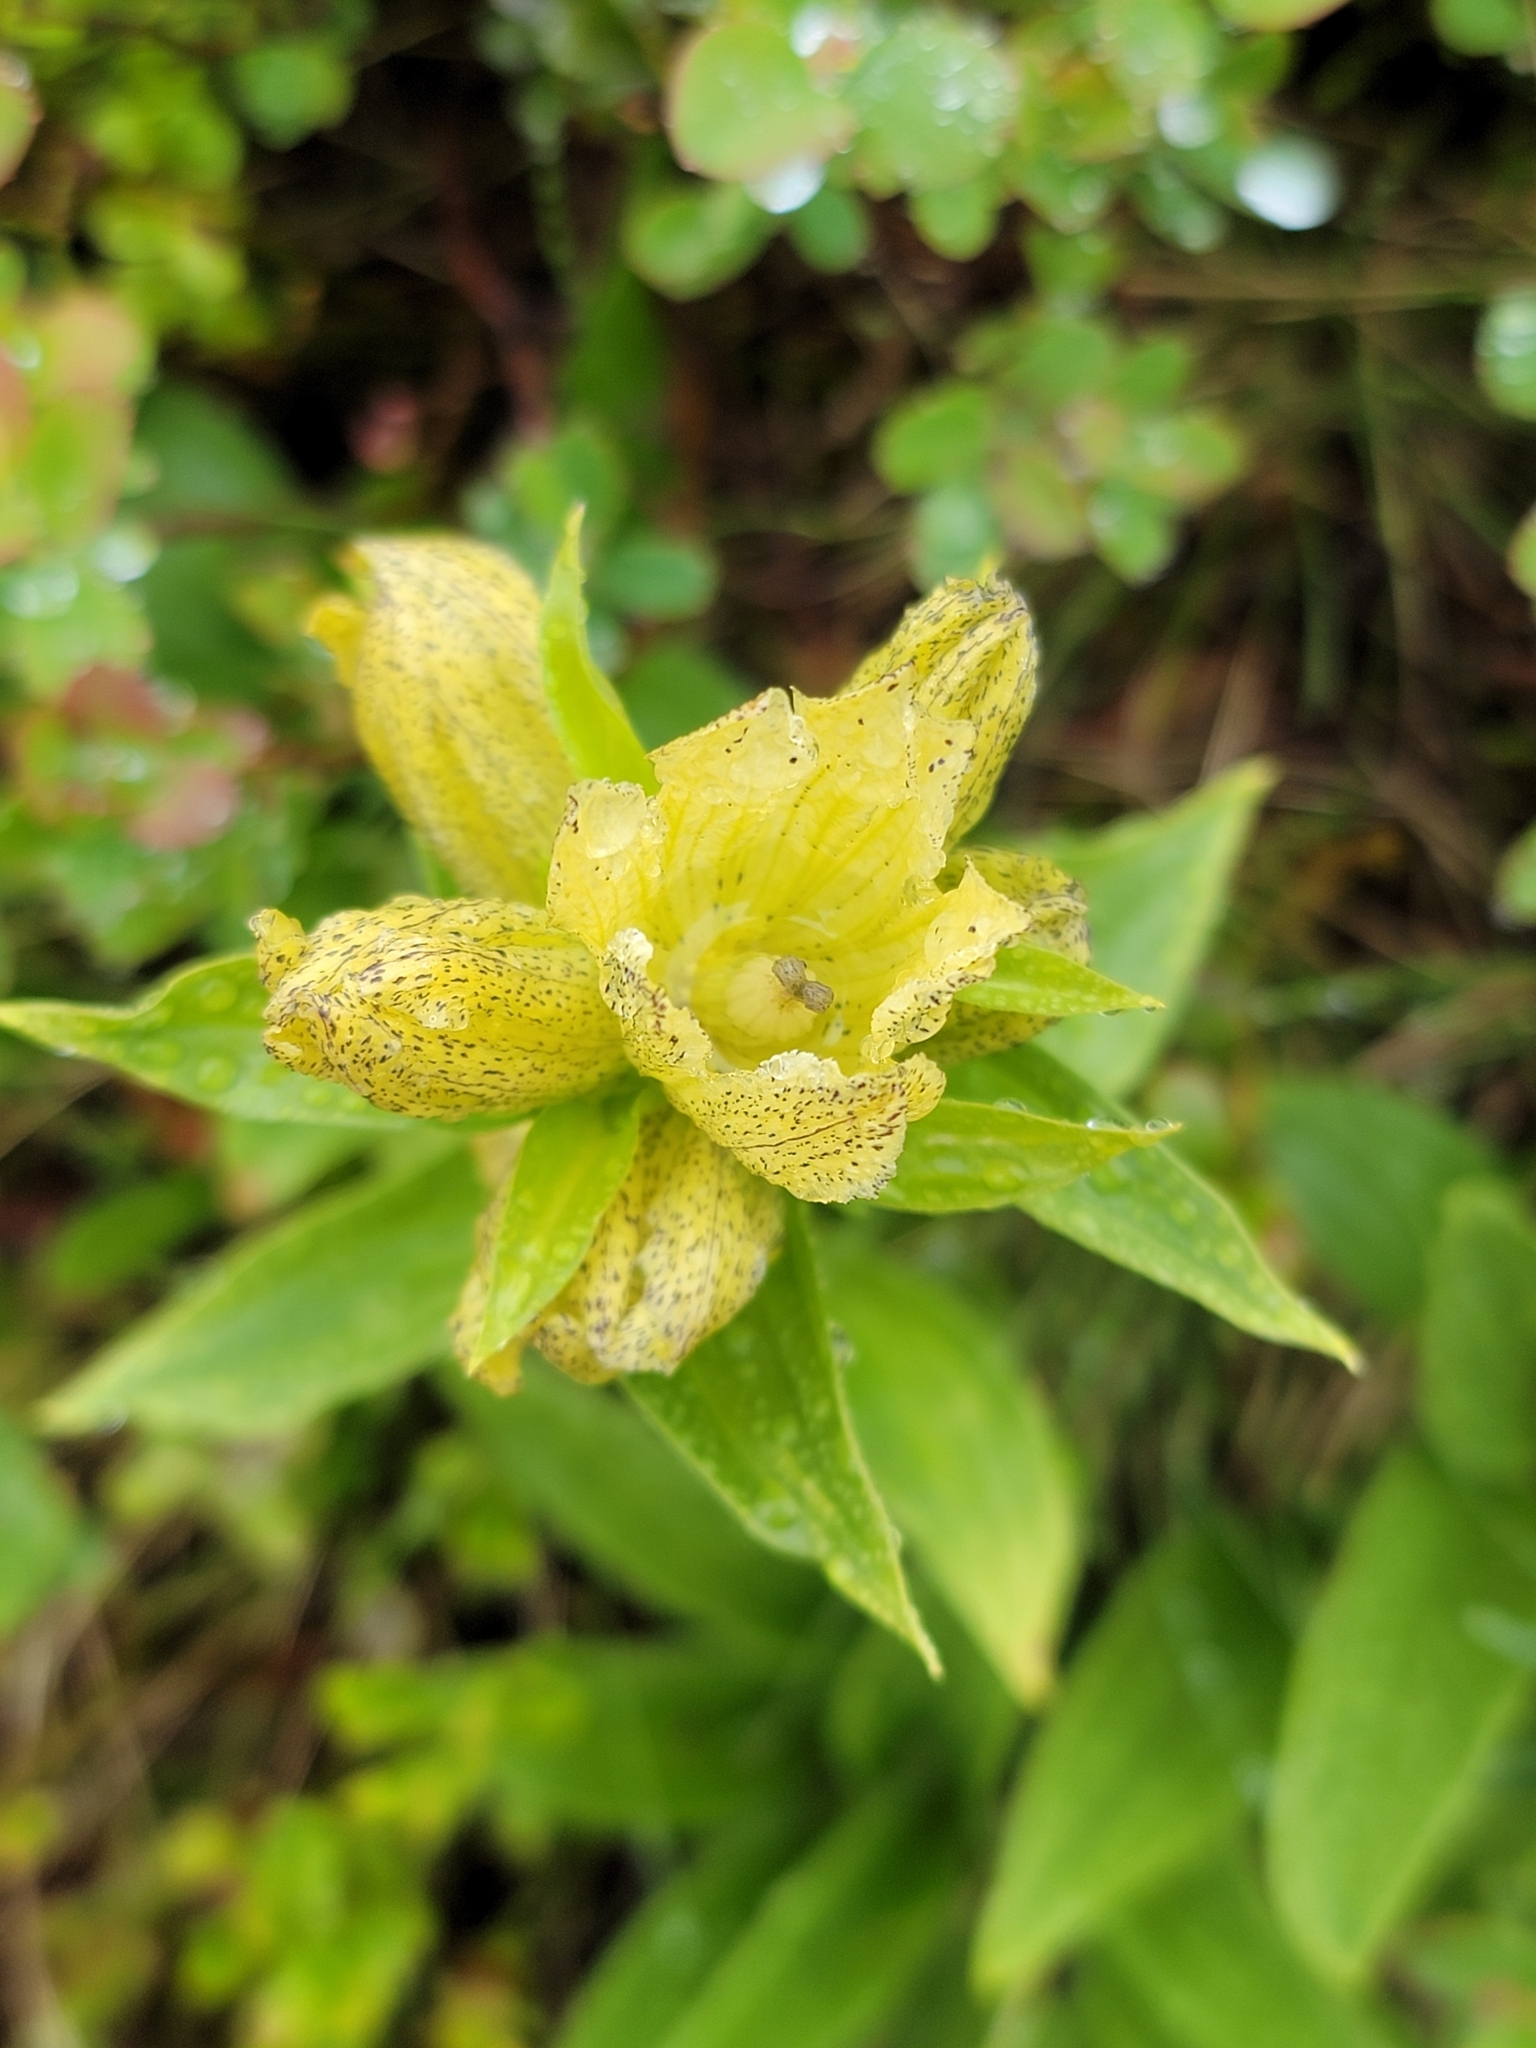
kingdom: Plantae
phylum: Tracheophyta
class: Magnoliopsida
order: Gentianales
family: Gentianaceae
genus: Gentiana
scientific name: Gentiana punctata
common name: Spotted gentian
